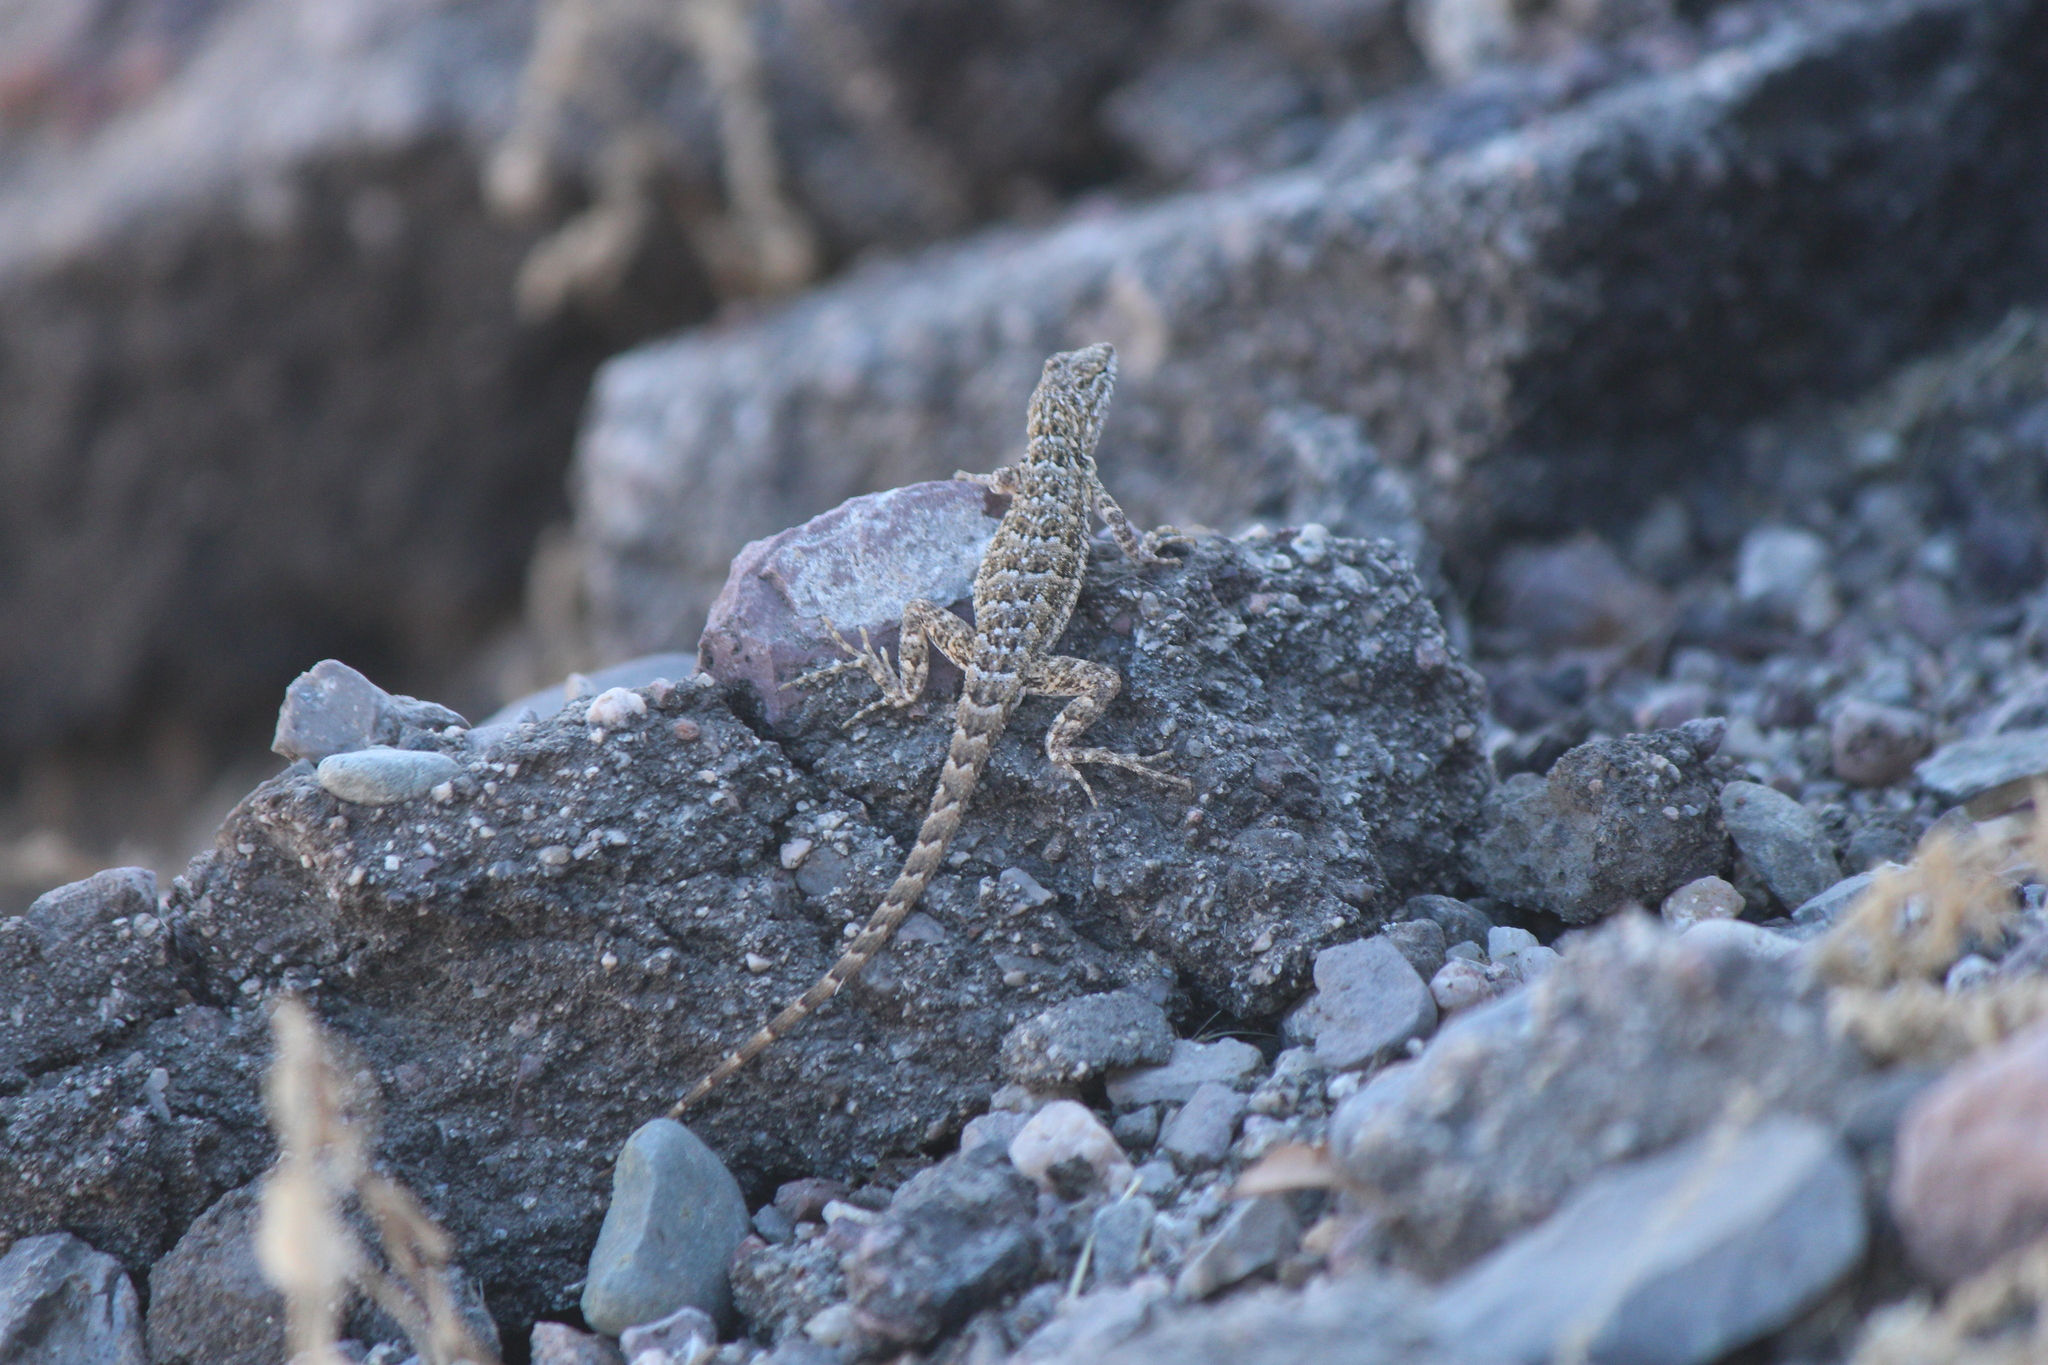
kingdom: Animalia
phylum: Chordata
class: Squamata
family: Phrynosomatidae
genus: Uta
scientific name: Uta stansburiana
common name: Side-blotched lizard
